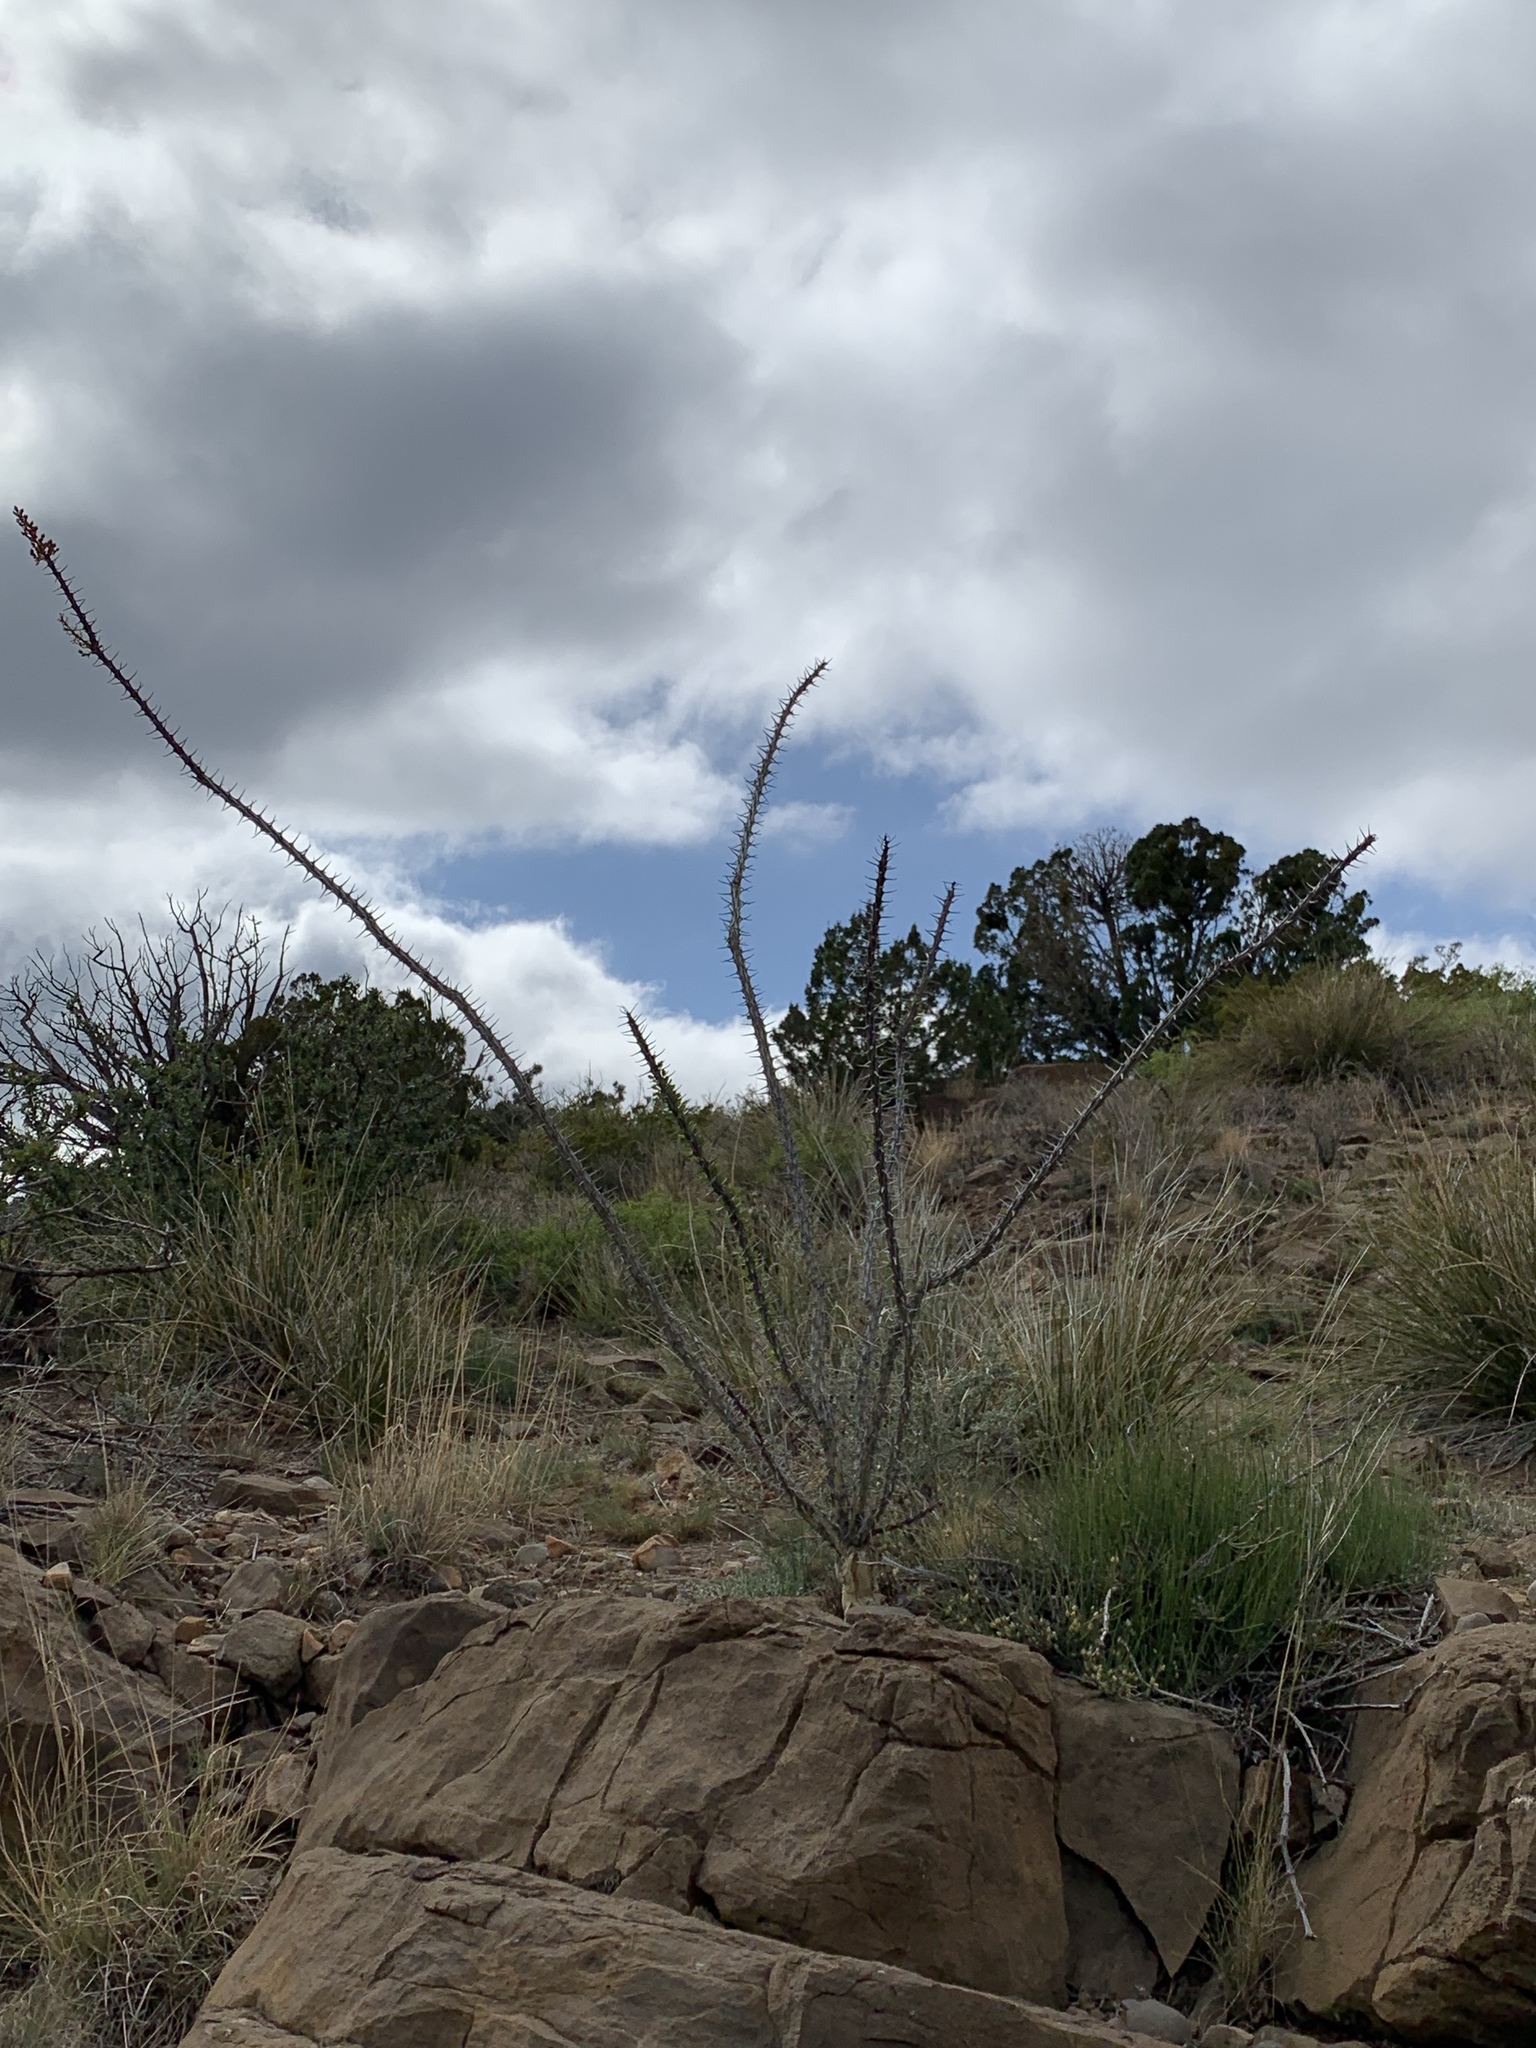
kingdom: Plantae
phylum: Tracheophyta
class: Magnoliopsida
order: Ericales
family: Fouquieriaceae
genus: Fouquieria
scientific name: Fouquieria splendens
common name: Vine-cactus
